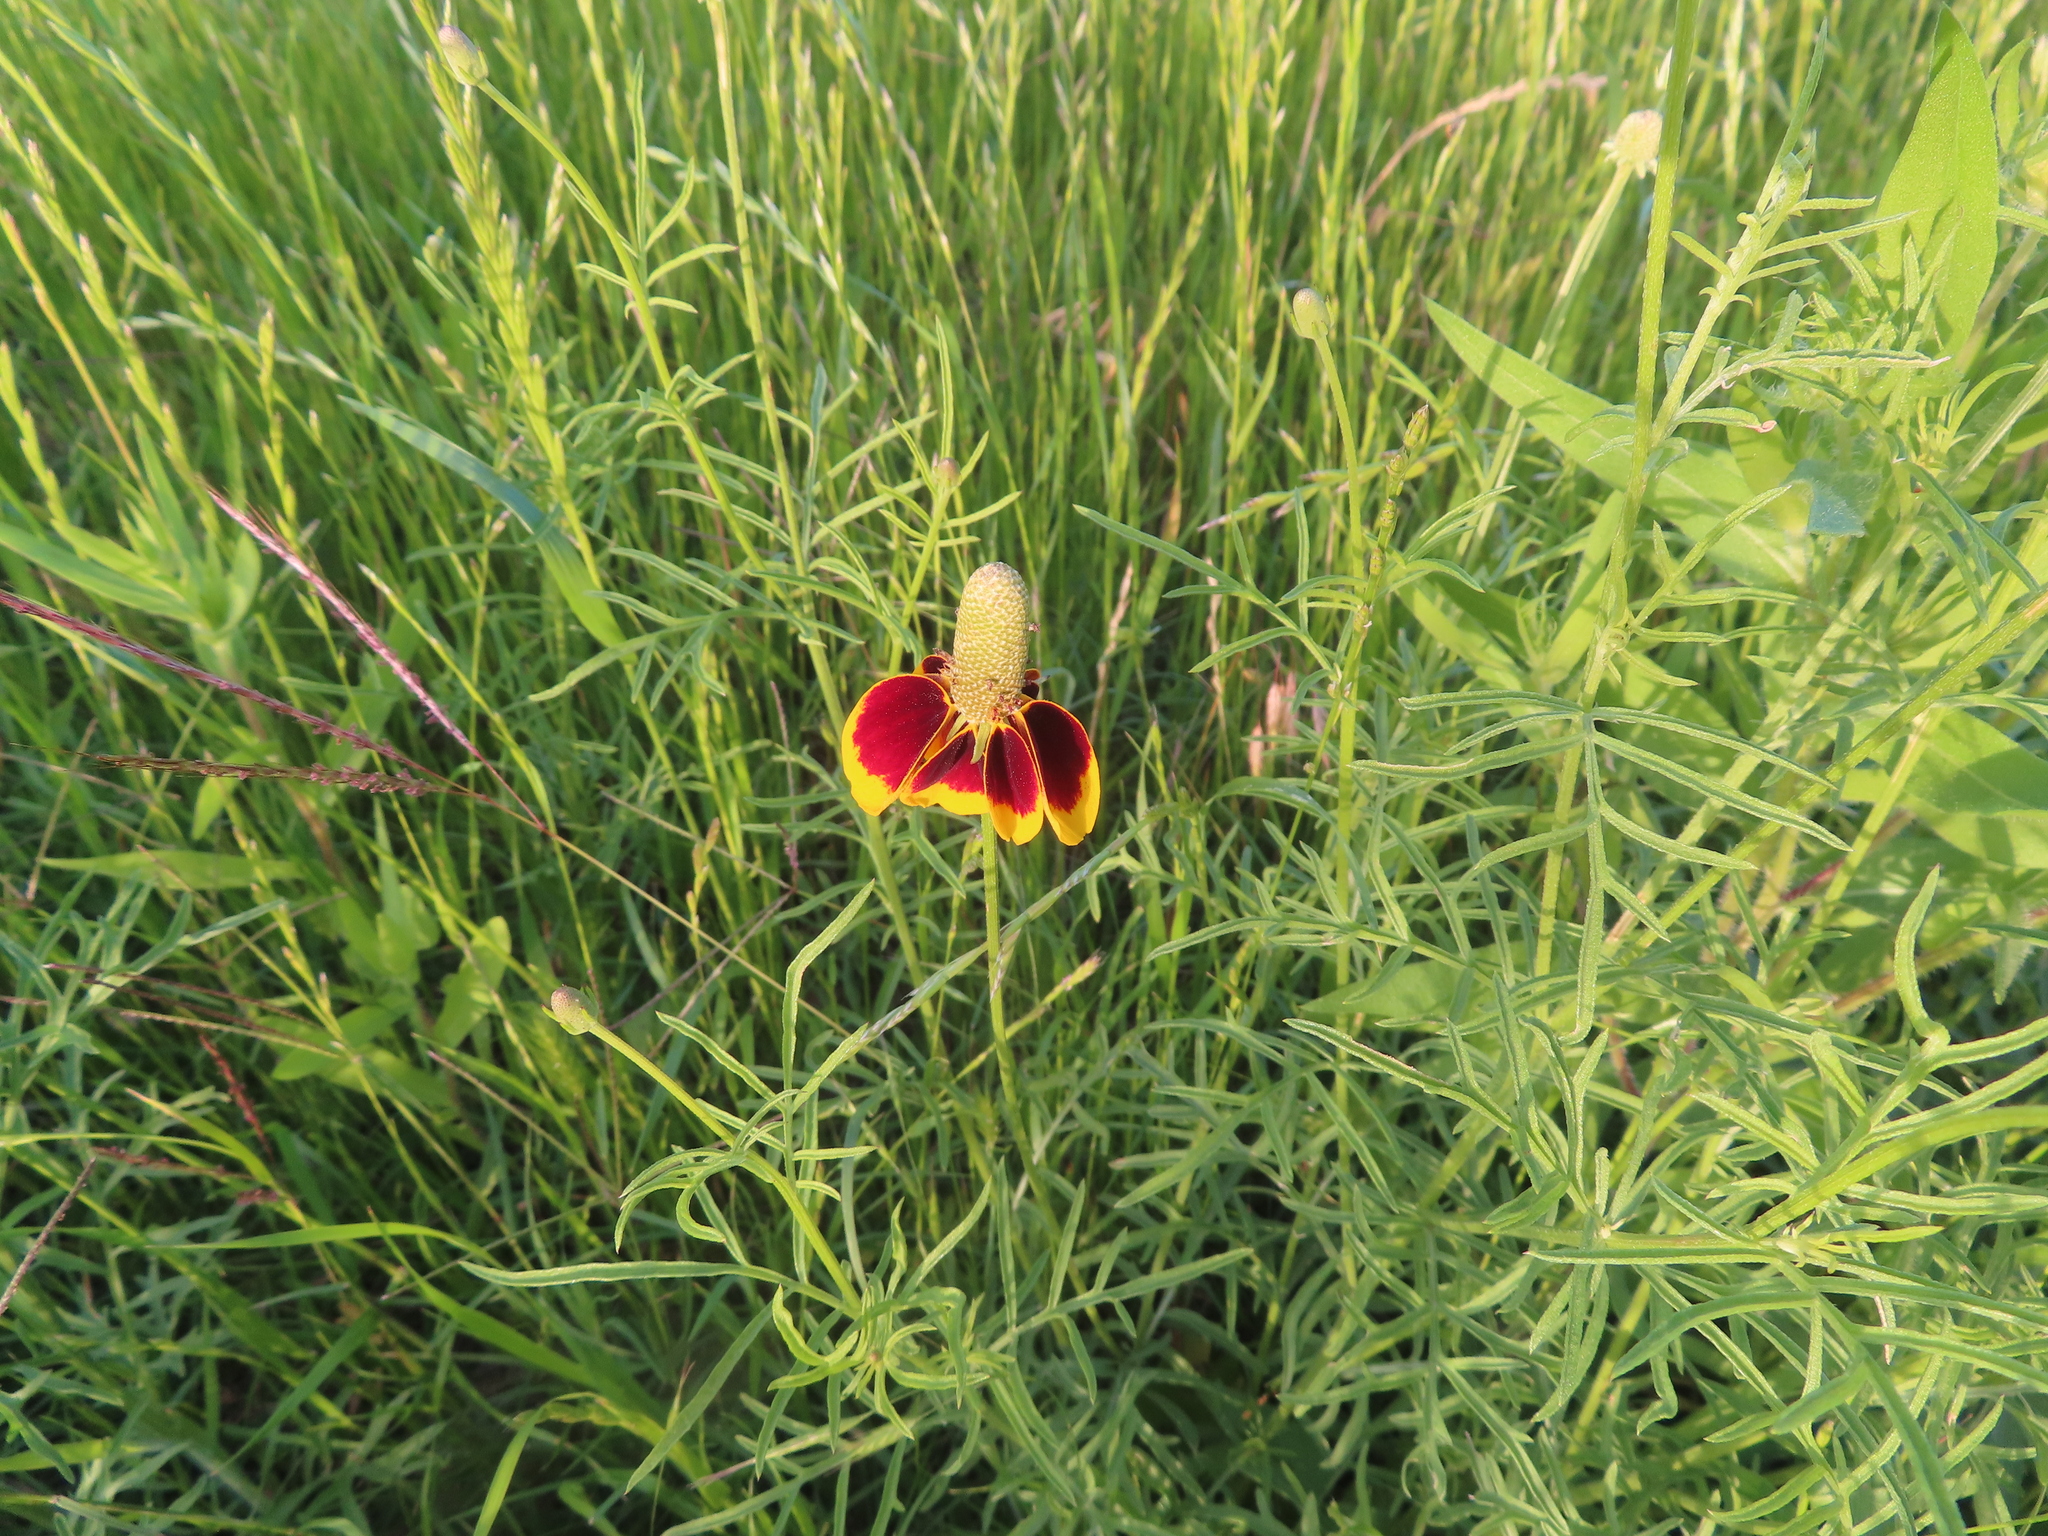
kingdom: Plantae
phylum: Tracheophyta
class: Magnoliopsida
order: Asterales
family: Asteraceae
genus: Ratibida
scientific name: Ratibida columnifera
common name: Prairie coneflower
